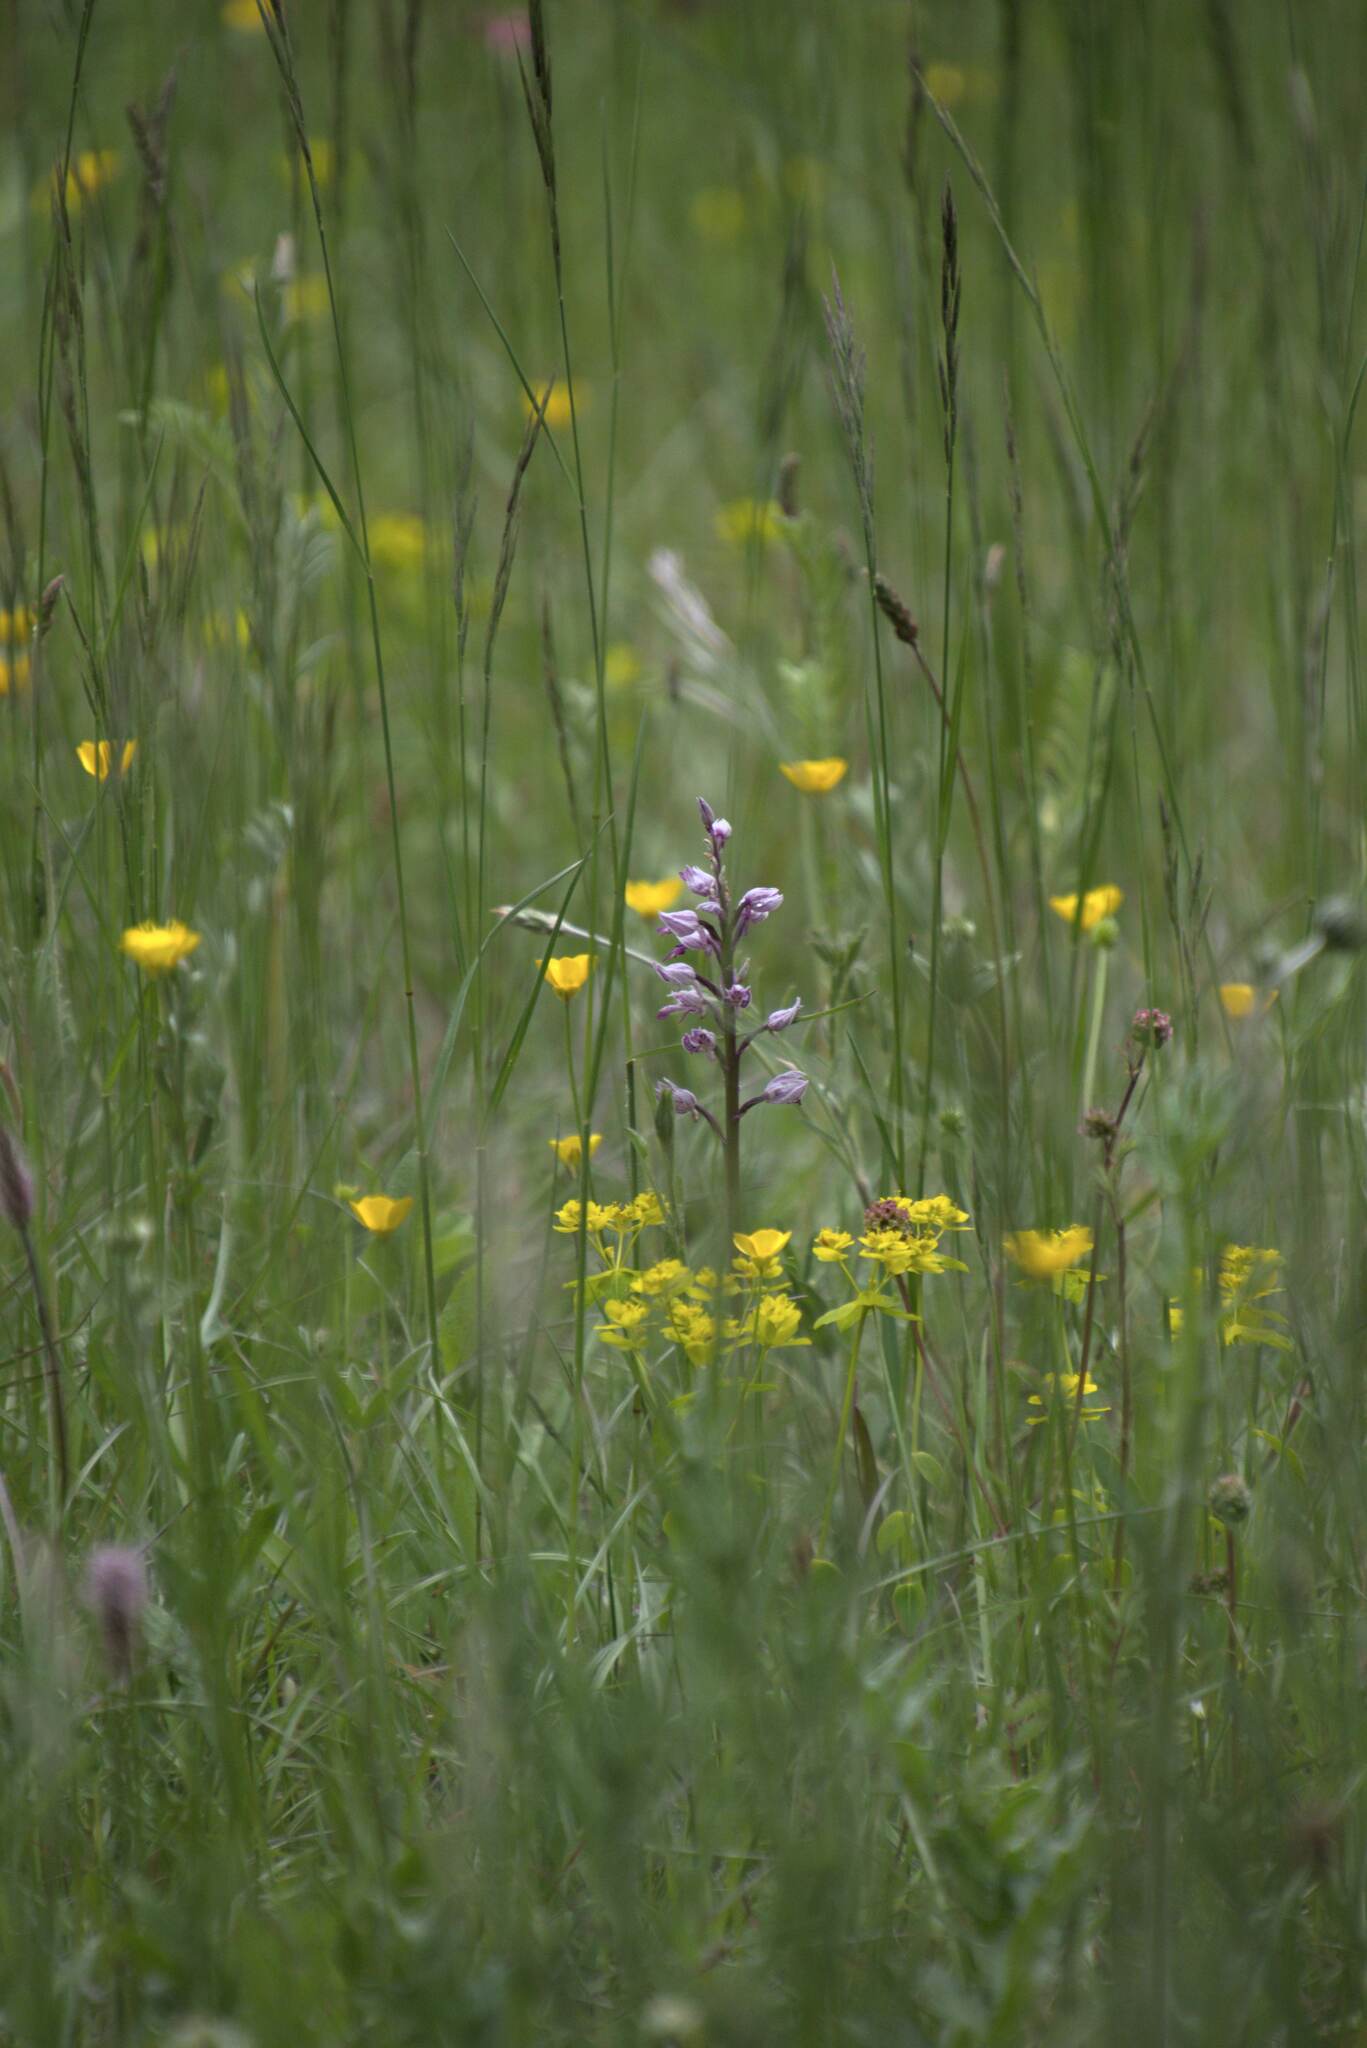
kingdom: Plantae
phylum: Tracheophyta
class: Liliopsida
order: Asparagales
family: Orchidaceae
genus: Orchis
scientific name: Orchis militaris
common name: Military orchid
